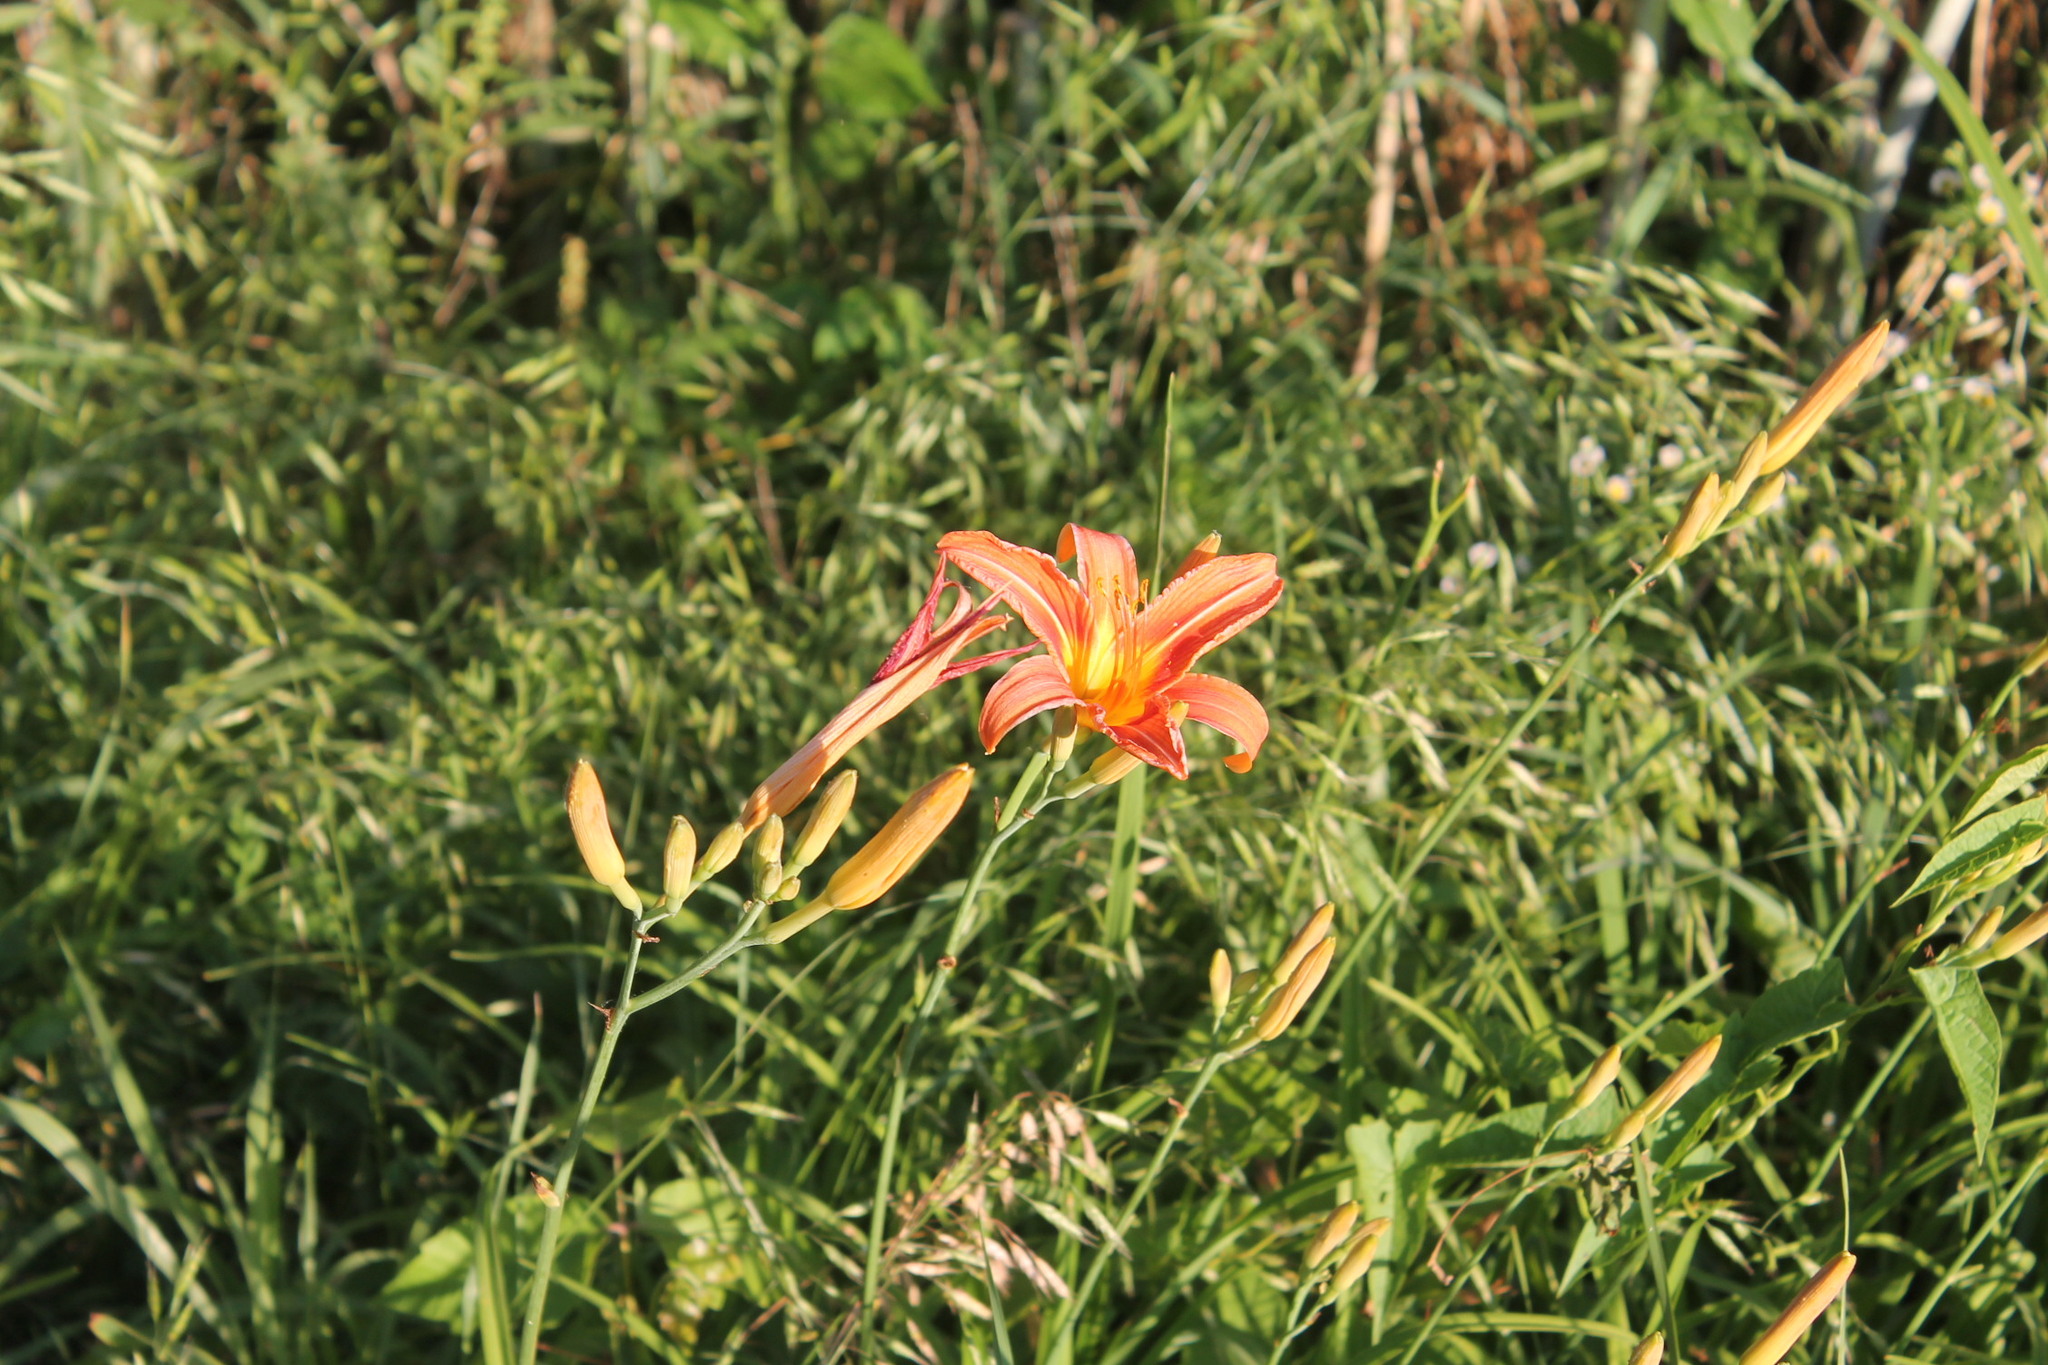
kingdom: Plantae
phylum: Tracheophyta
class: Liliopsida
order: Asparagales
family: Asphodelaceae
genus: Hemerocallis
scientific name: Hemerocallis fulva
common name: Orange day-lily
